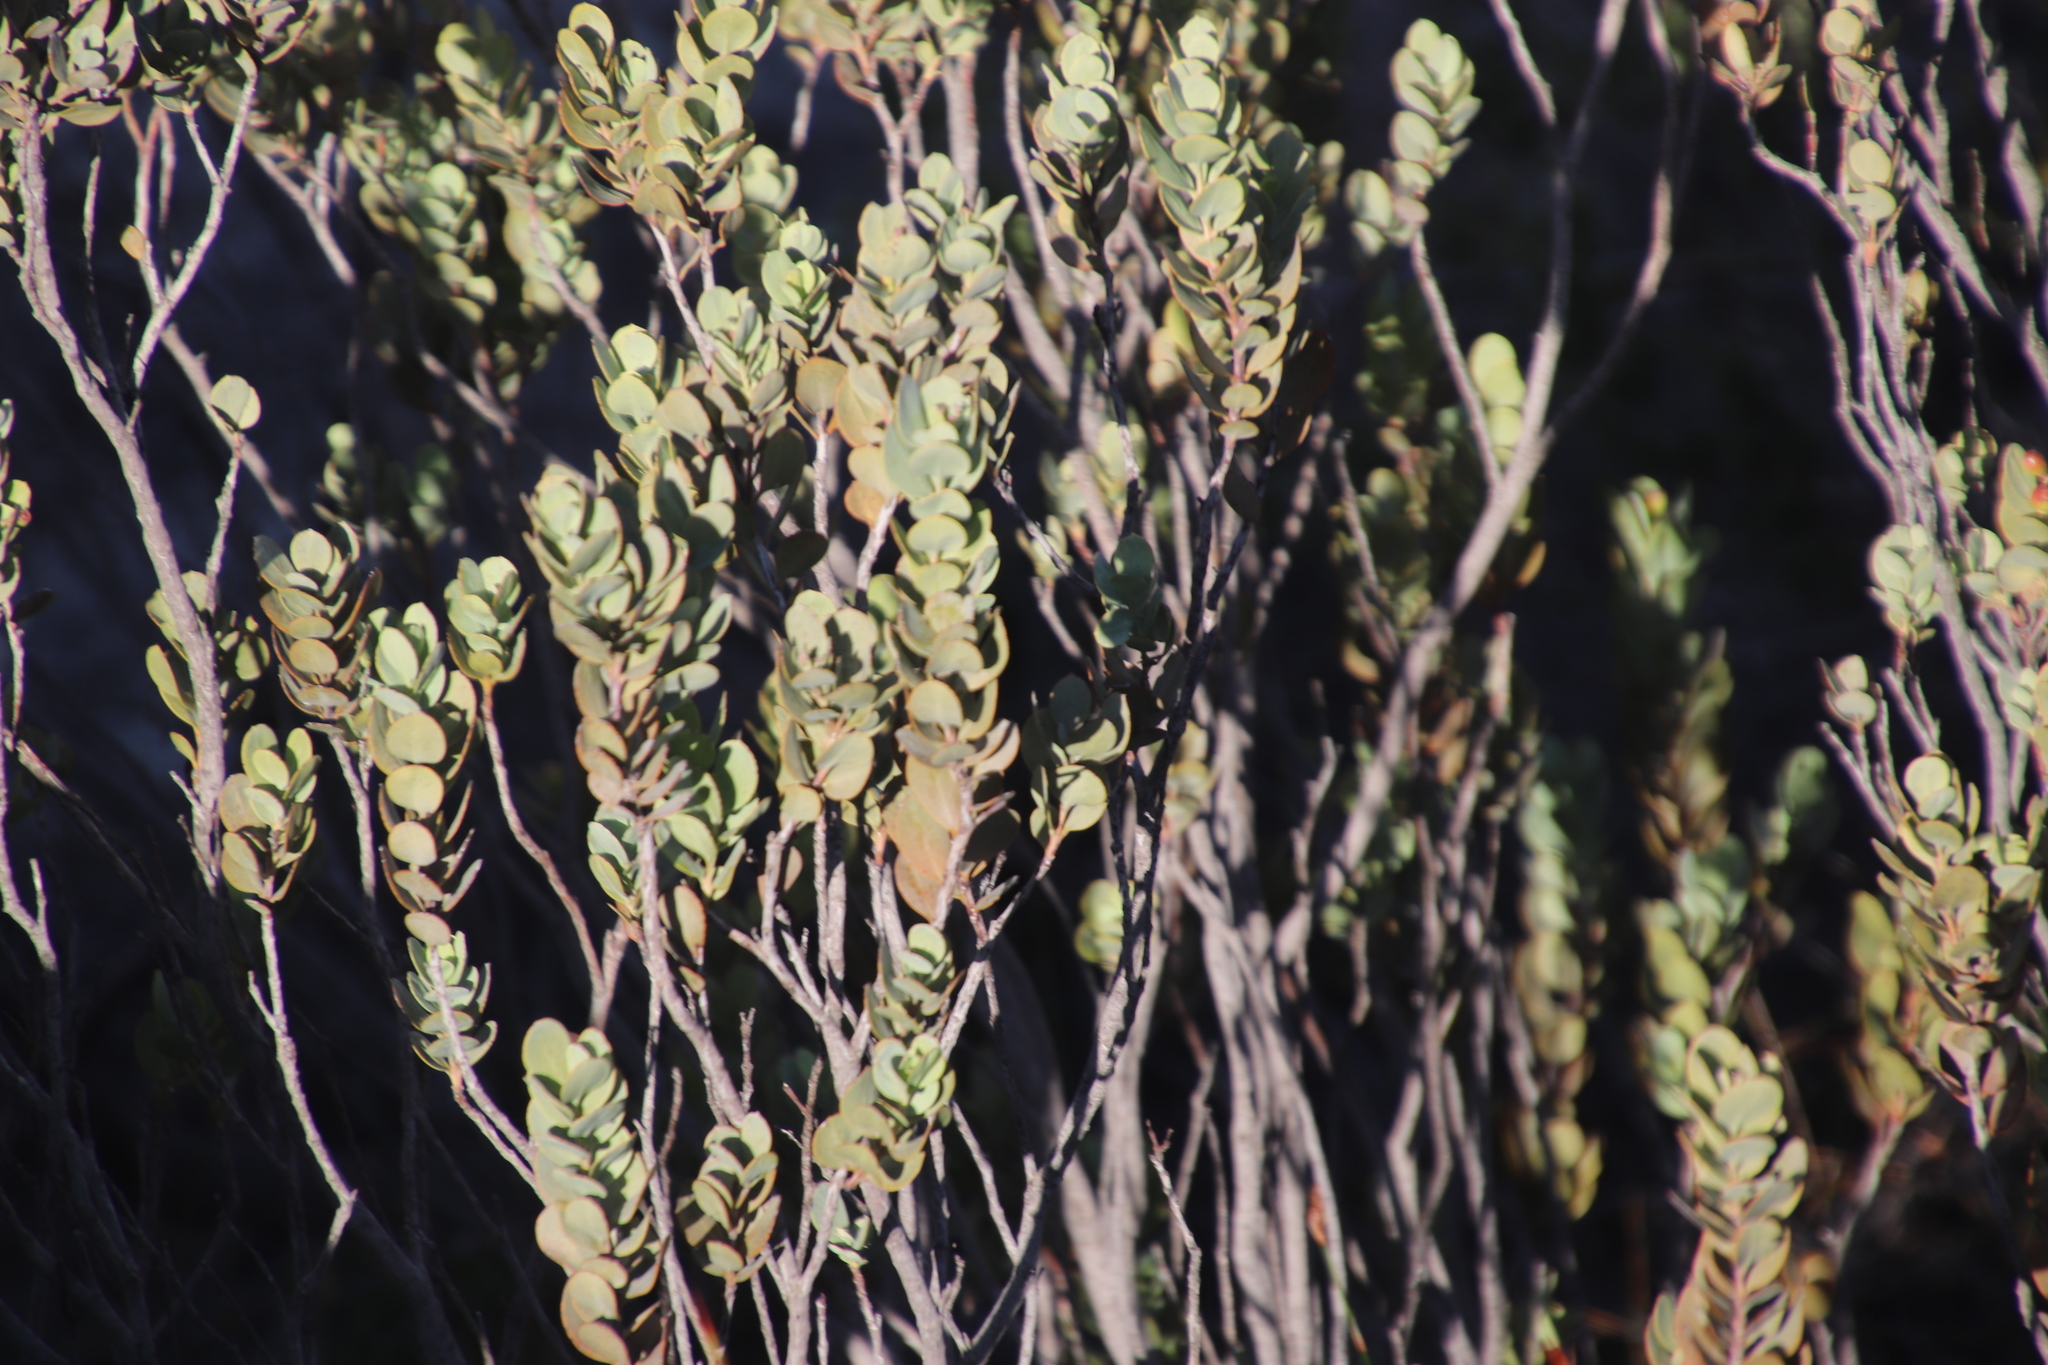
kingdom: Plantae
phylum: Tracheophyta
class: Magnoliopsida
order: Santalales
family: Santalaceae
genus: Osyris
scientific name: Osyris compressa
